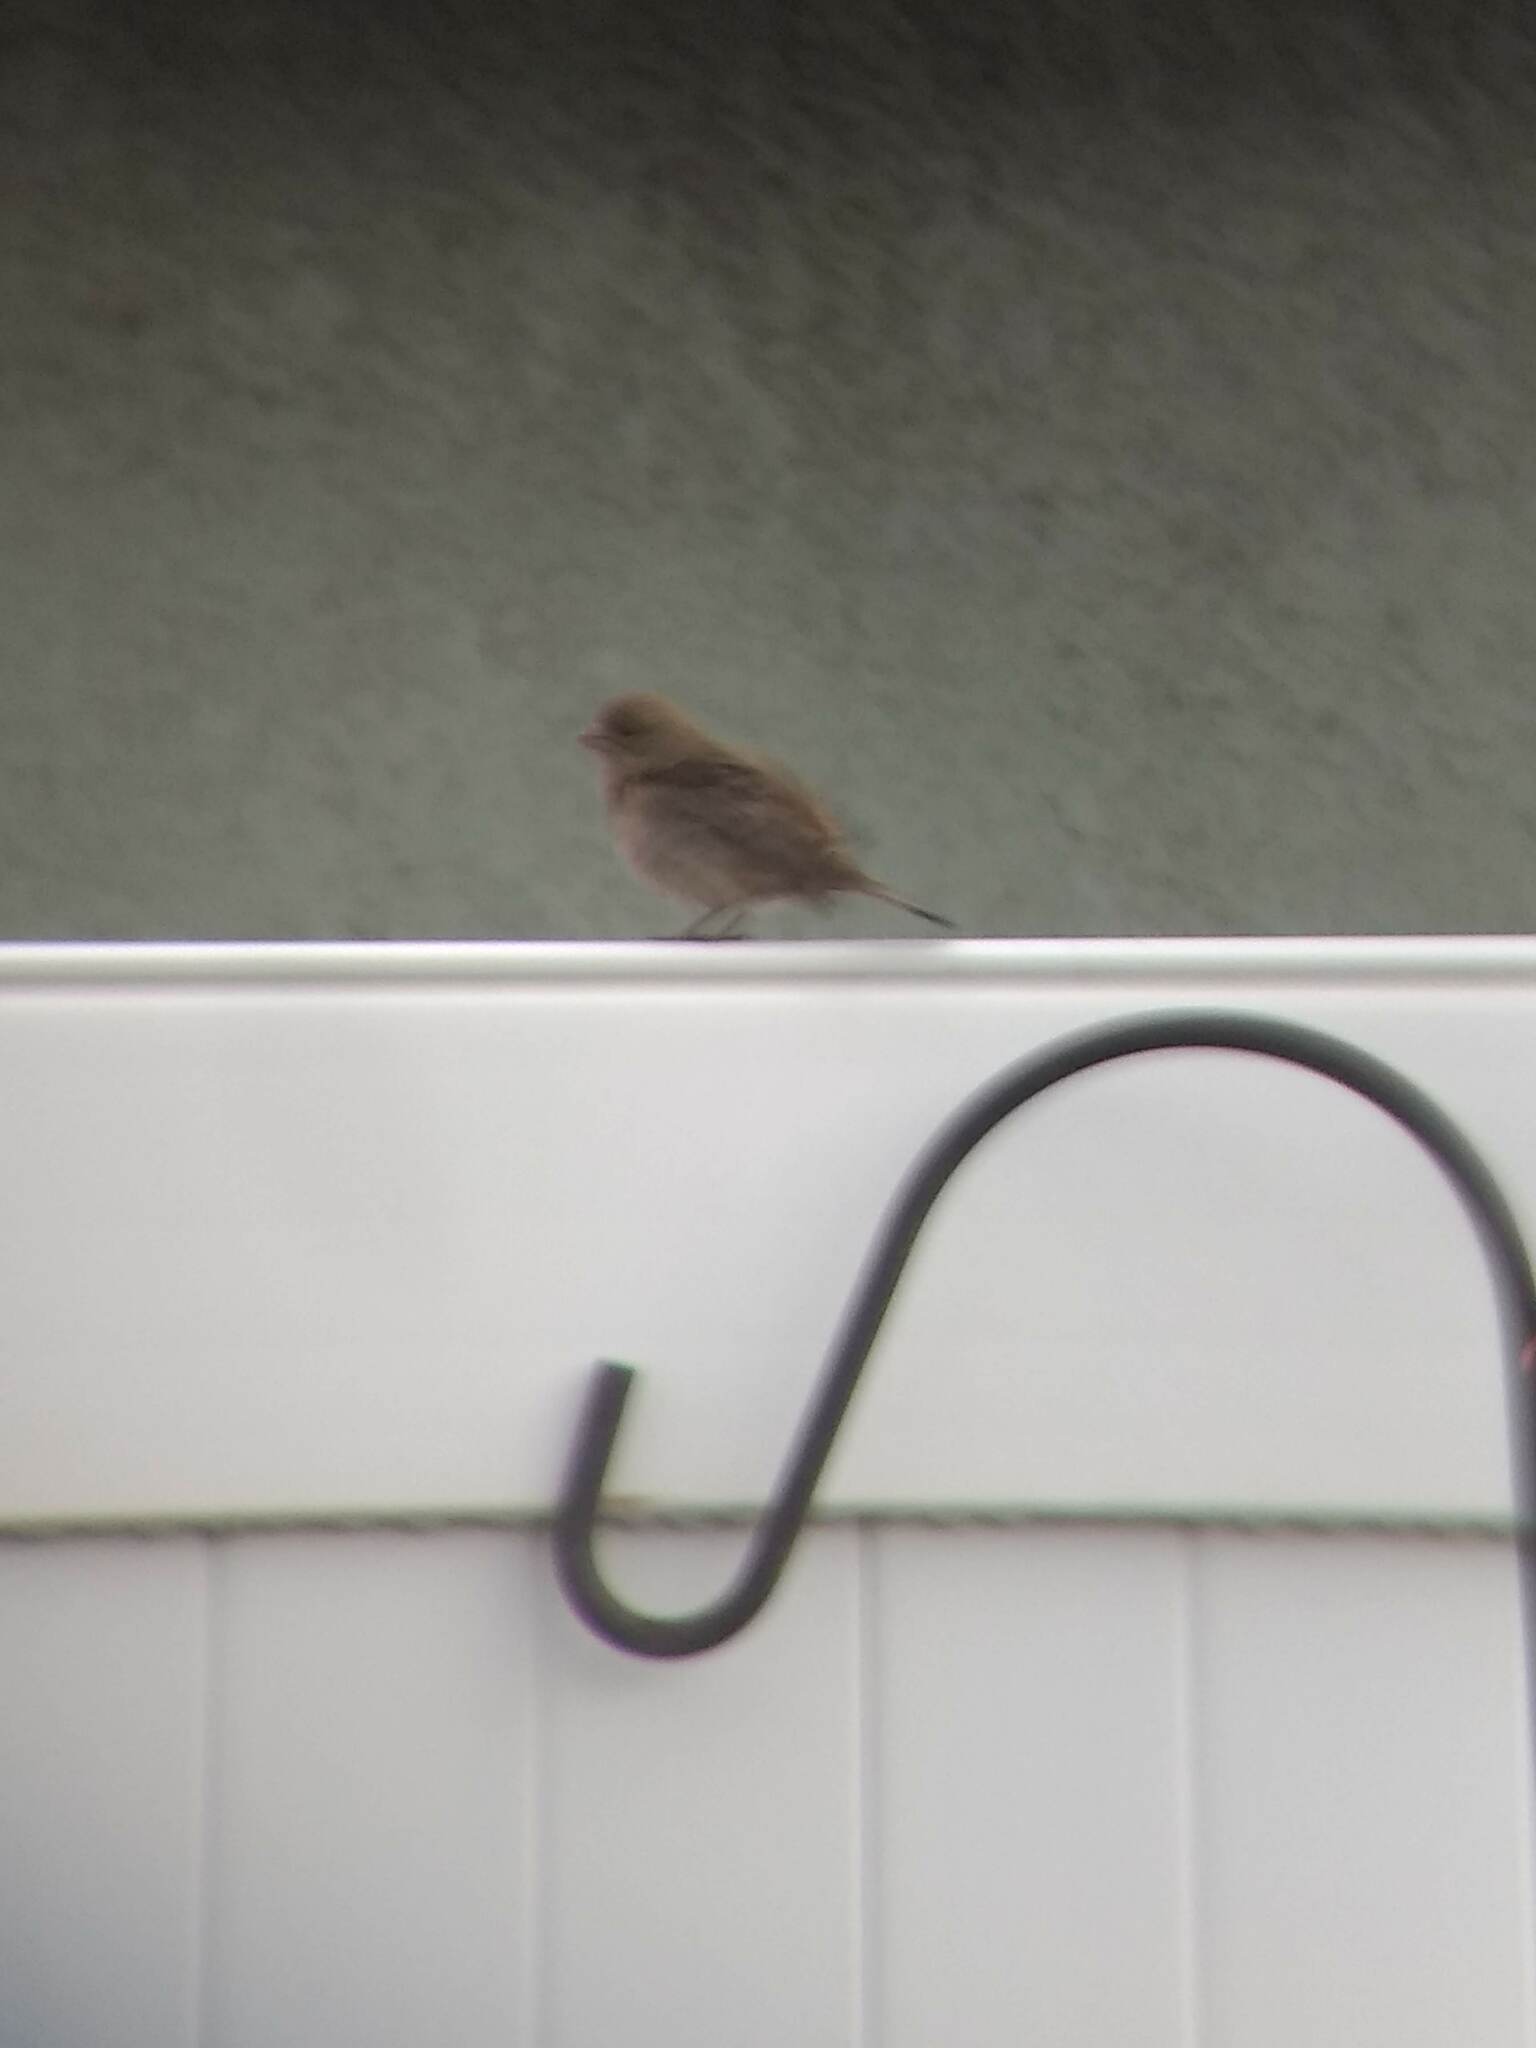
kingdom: Animalia
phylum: Chordata
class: Aves
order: Passeriformes
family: Fringillidae
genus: Haemorhous
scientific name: Haemorhous mexicanus
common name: House finch
